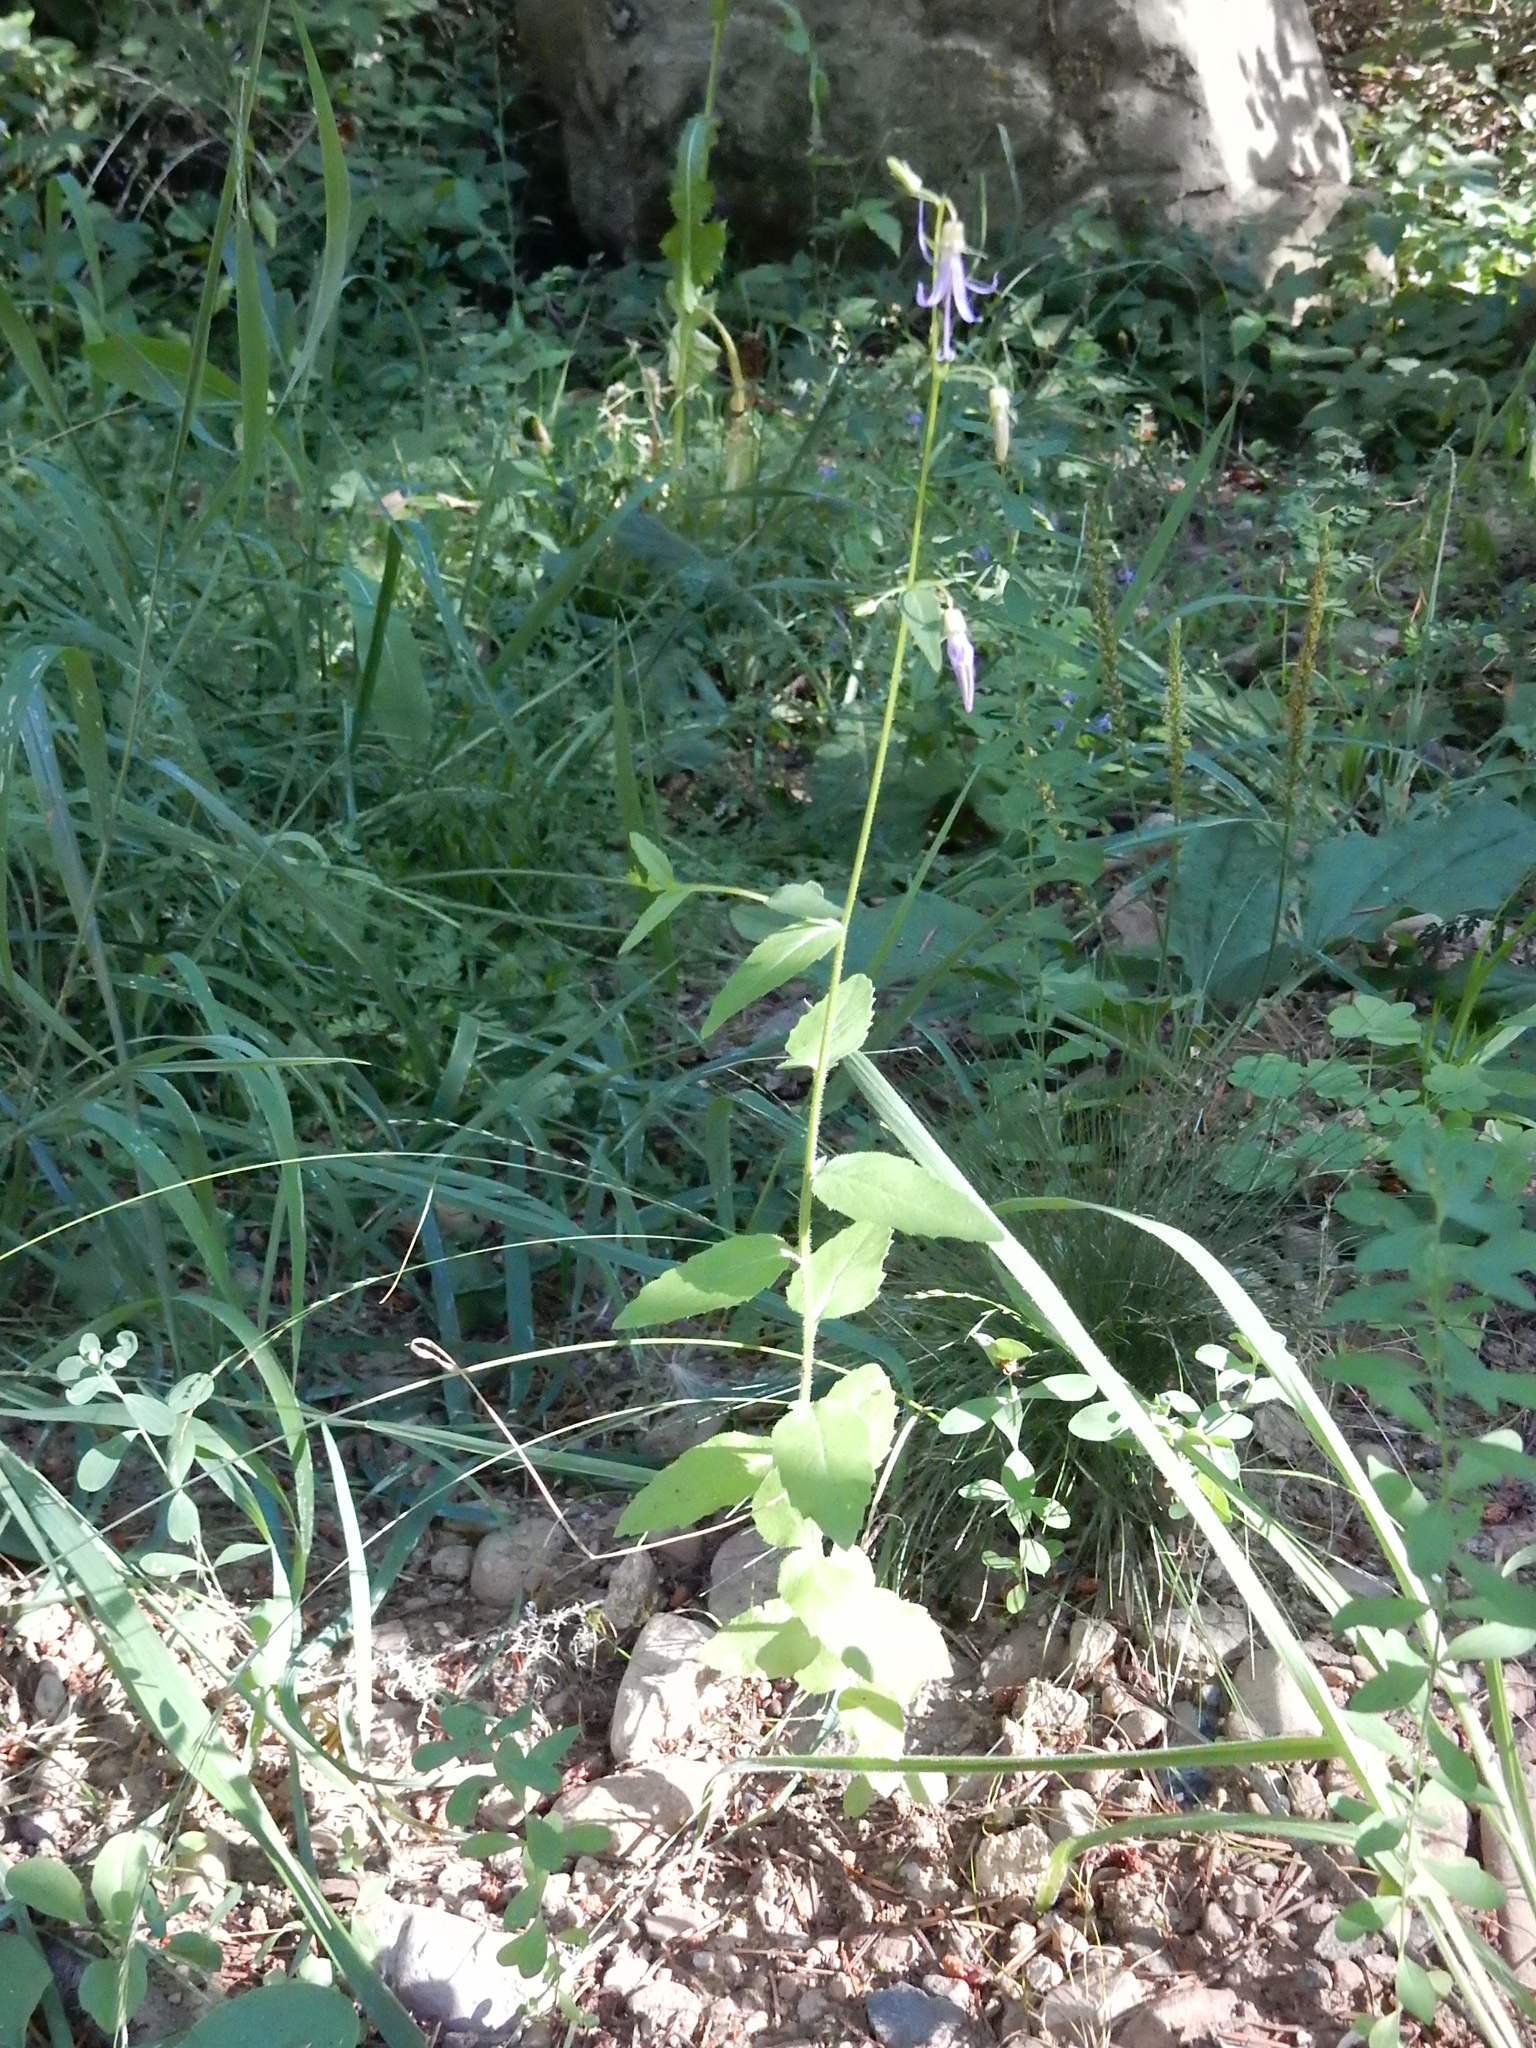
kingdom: Plantae
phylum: Tracheophyta
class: Magnoliopsida
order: Asterales
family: Campanulaceae
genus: Smithiastrum
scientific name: Smithiastrum prenanthoides
